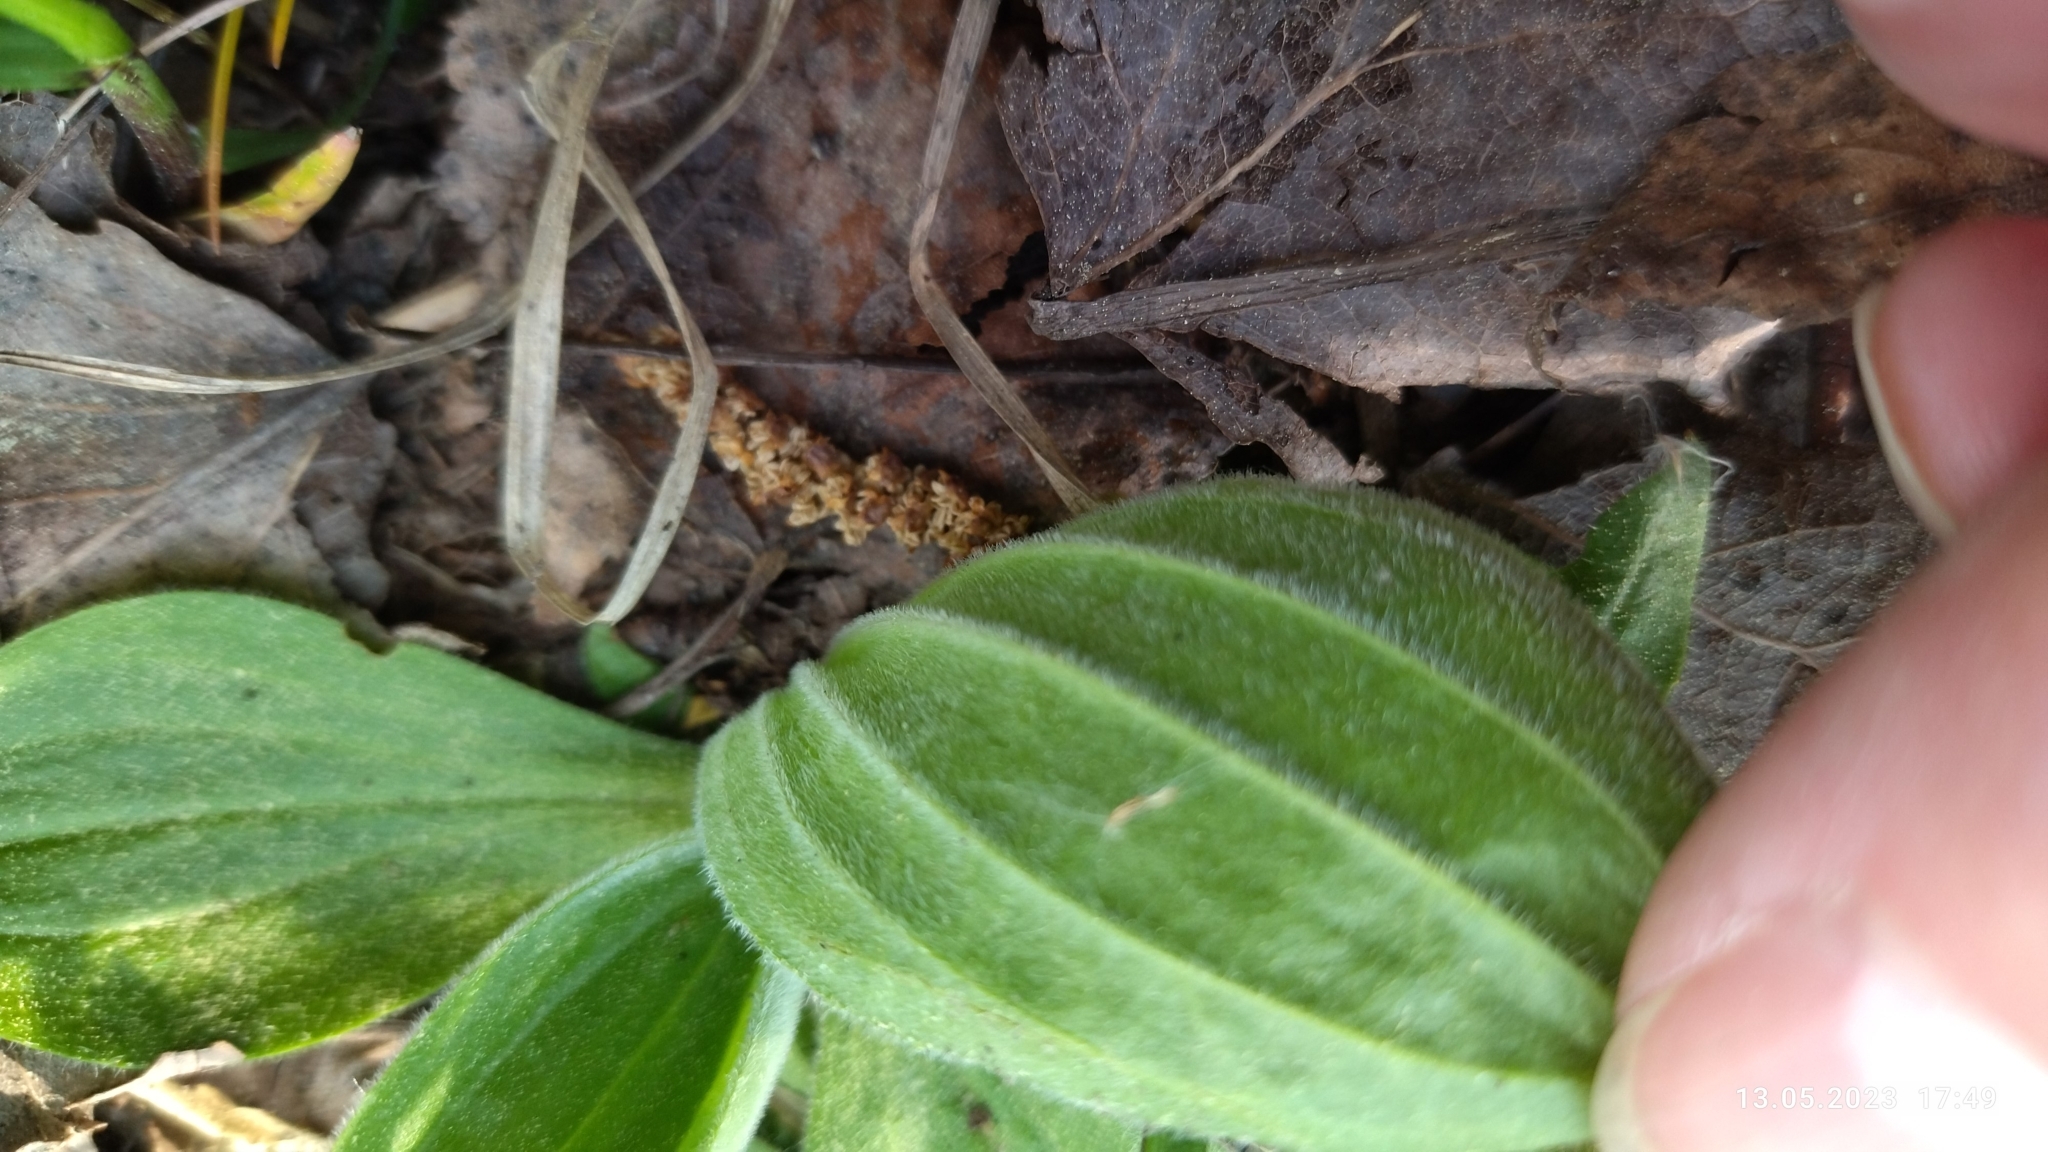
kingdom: Plantae
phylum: Tracheophyta
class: Magnoliopsida
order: Lamiales
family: Plantaginaceae
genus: Plantago
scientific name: Plantago media
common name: Hoary plantain
